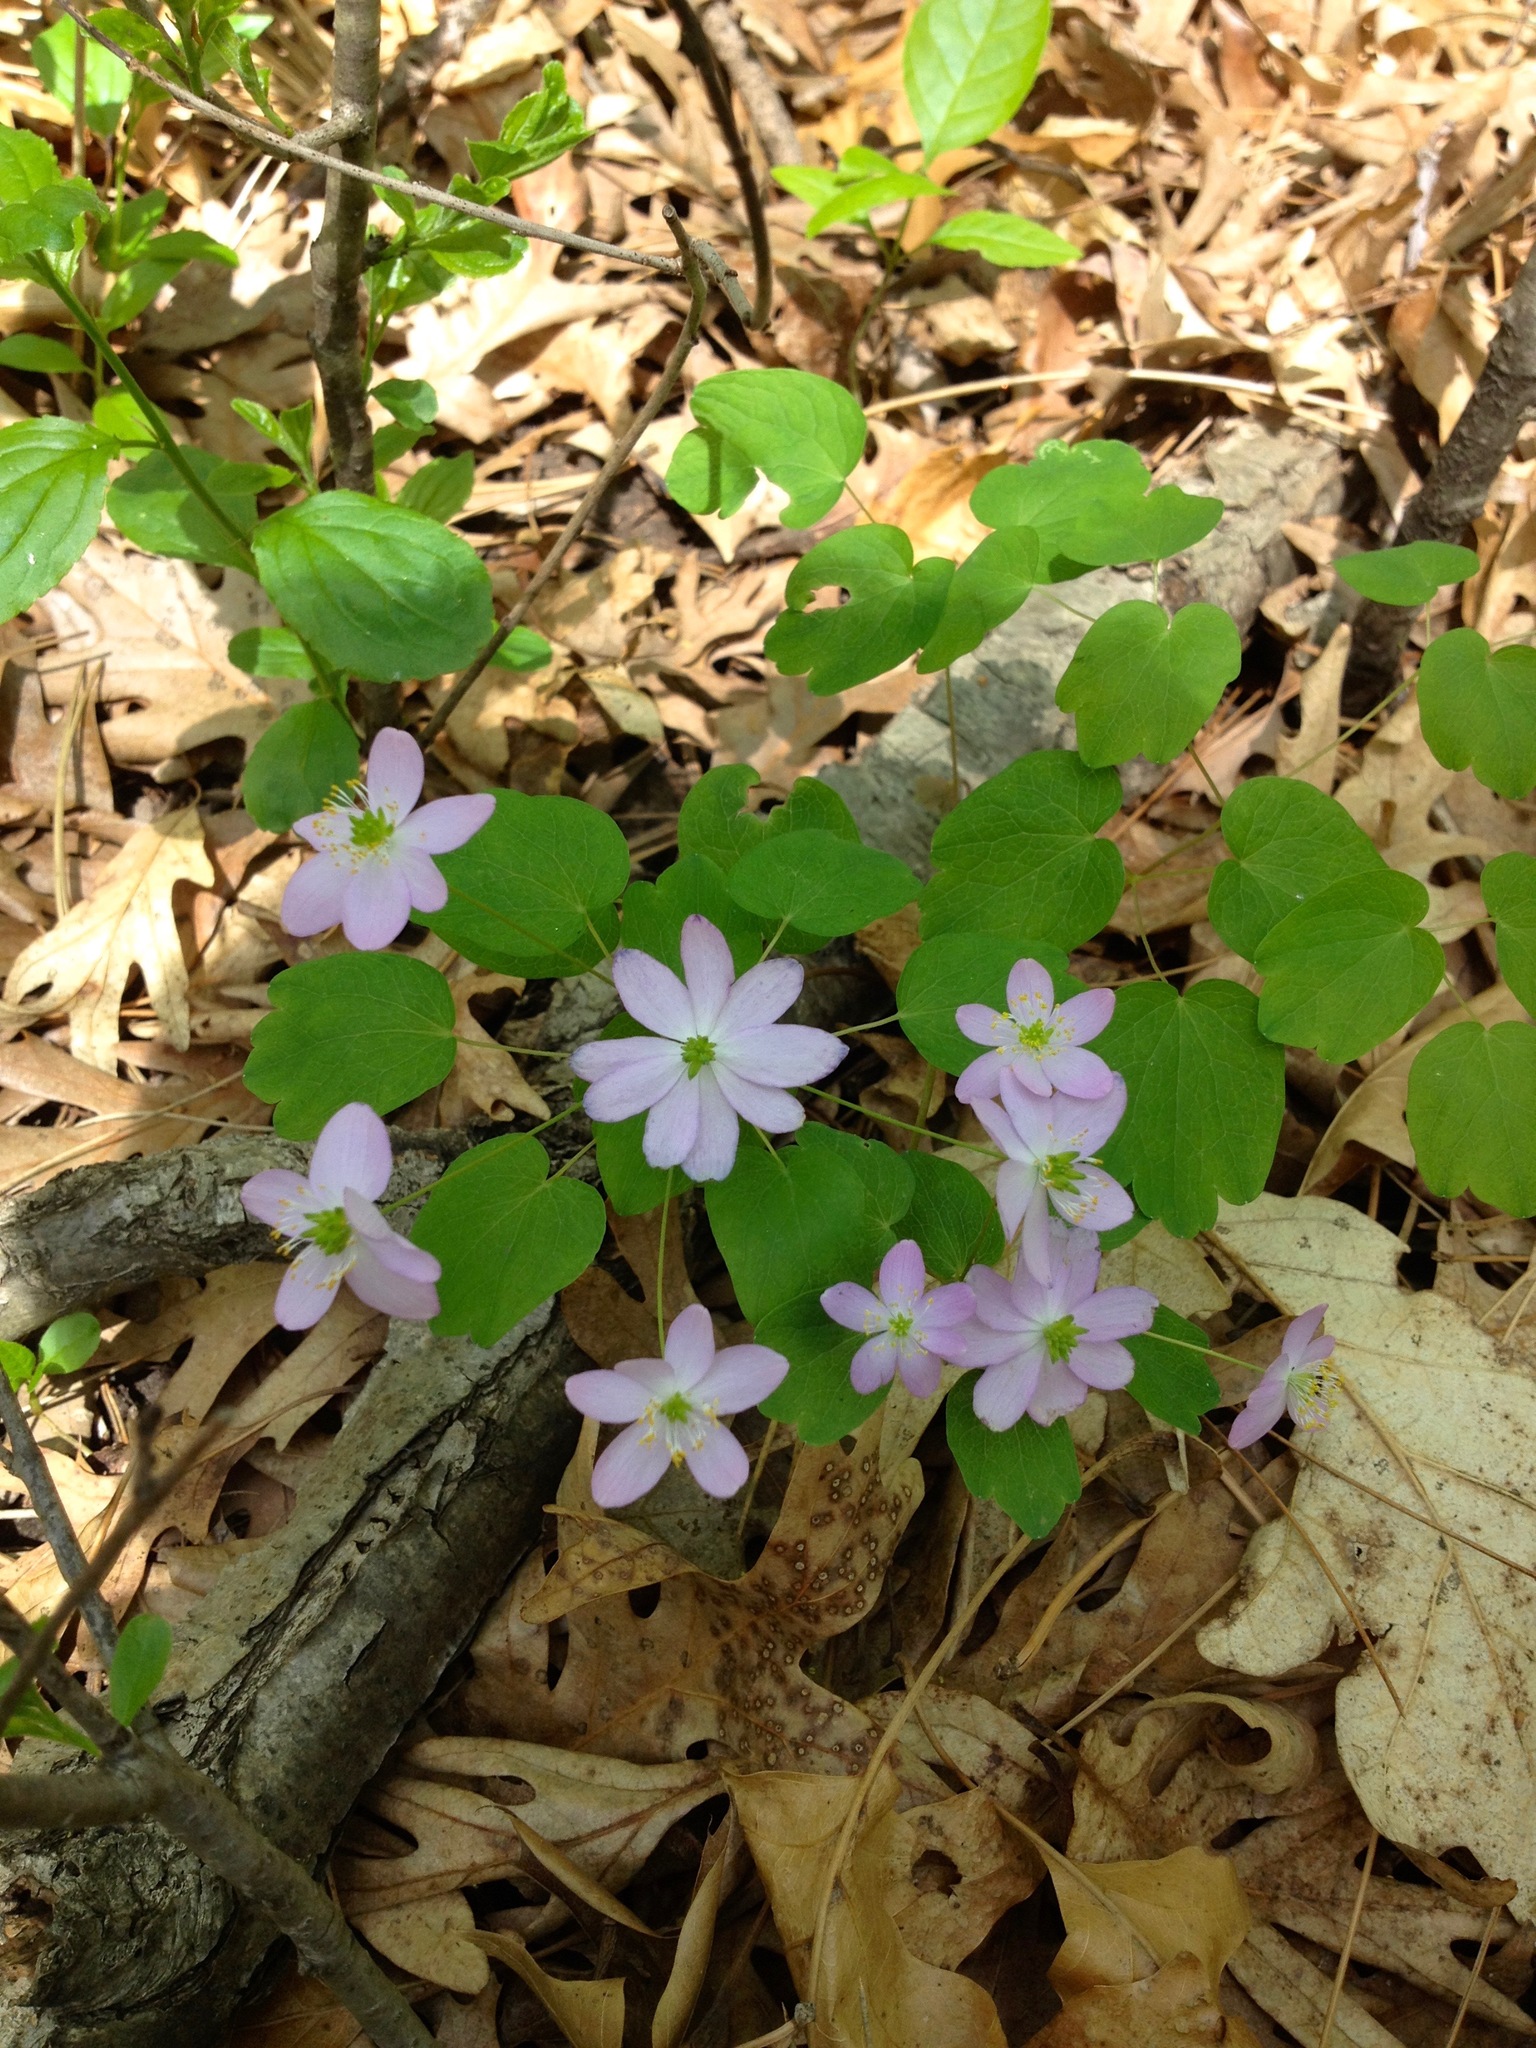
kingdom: Plantae
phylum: Tracheophyta
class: Magnoliopsida
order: Ranunculales
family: Ranunculaceae
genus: Thalictrum
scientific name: Thalictrum thalictroides
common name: Rue-anemone
